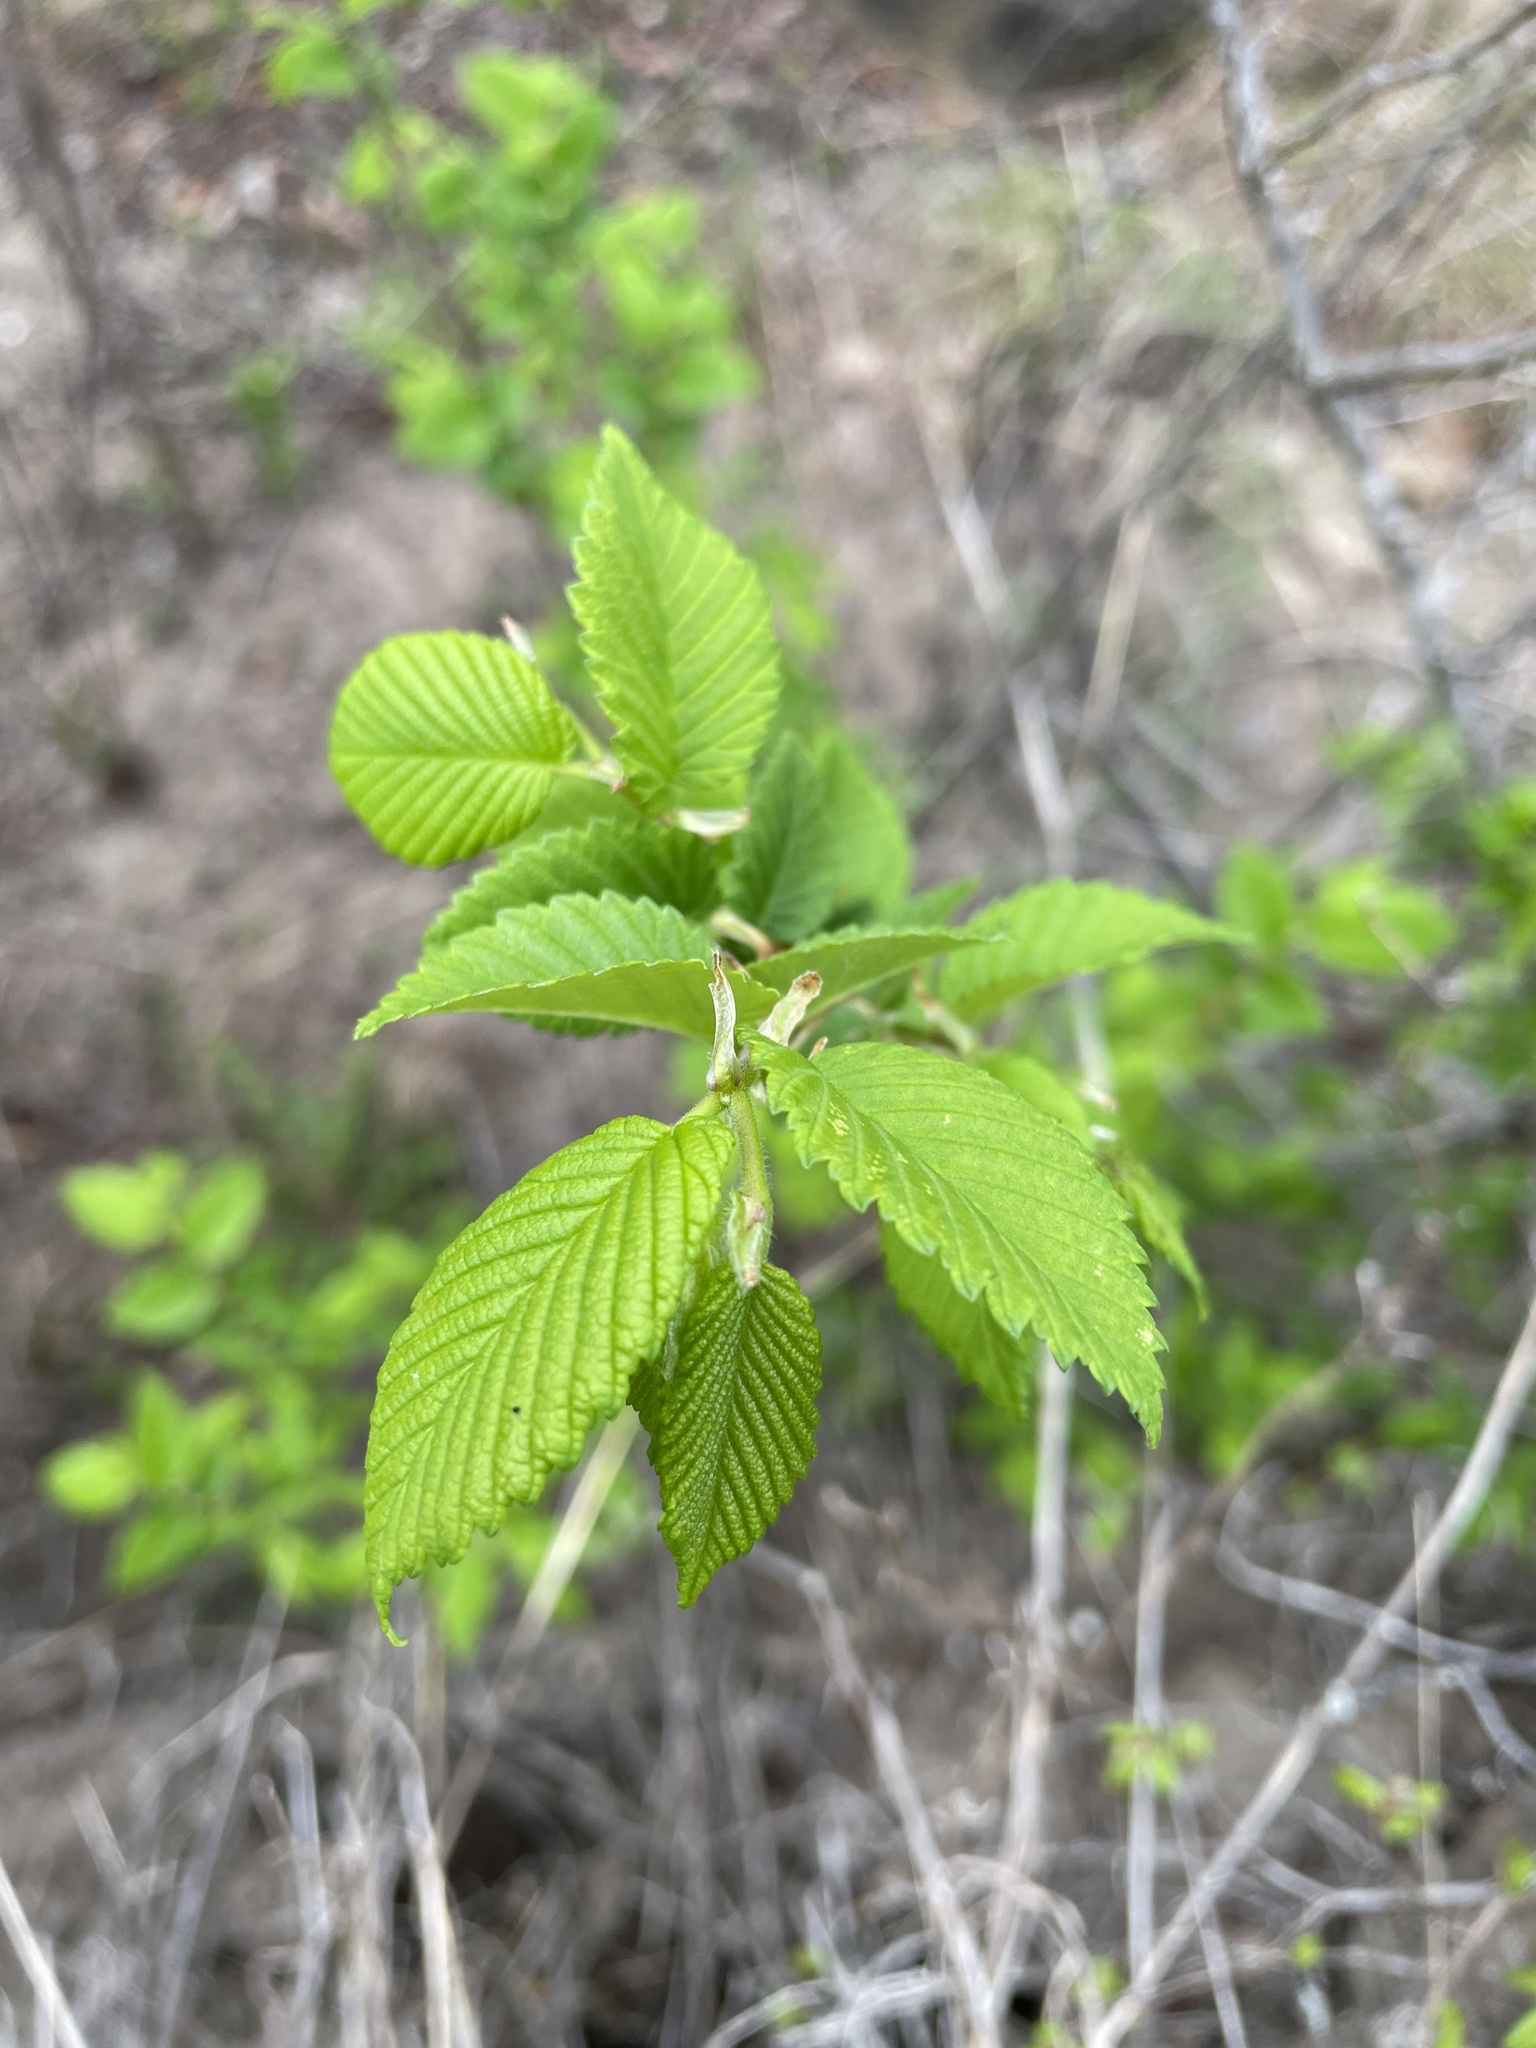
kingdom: Plantae
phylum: Tracheophyta
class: Magnoliopsida
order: Rosales
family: Ulmaceae
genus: Ulmus
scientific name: Ulmus americana
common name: American elm
